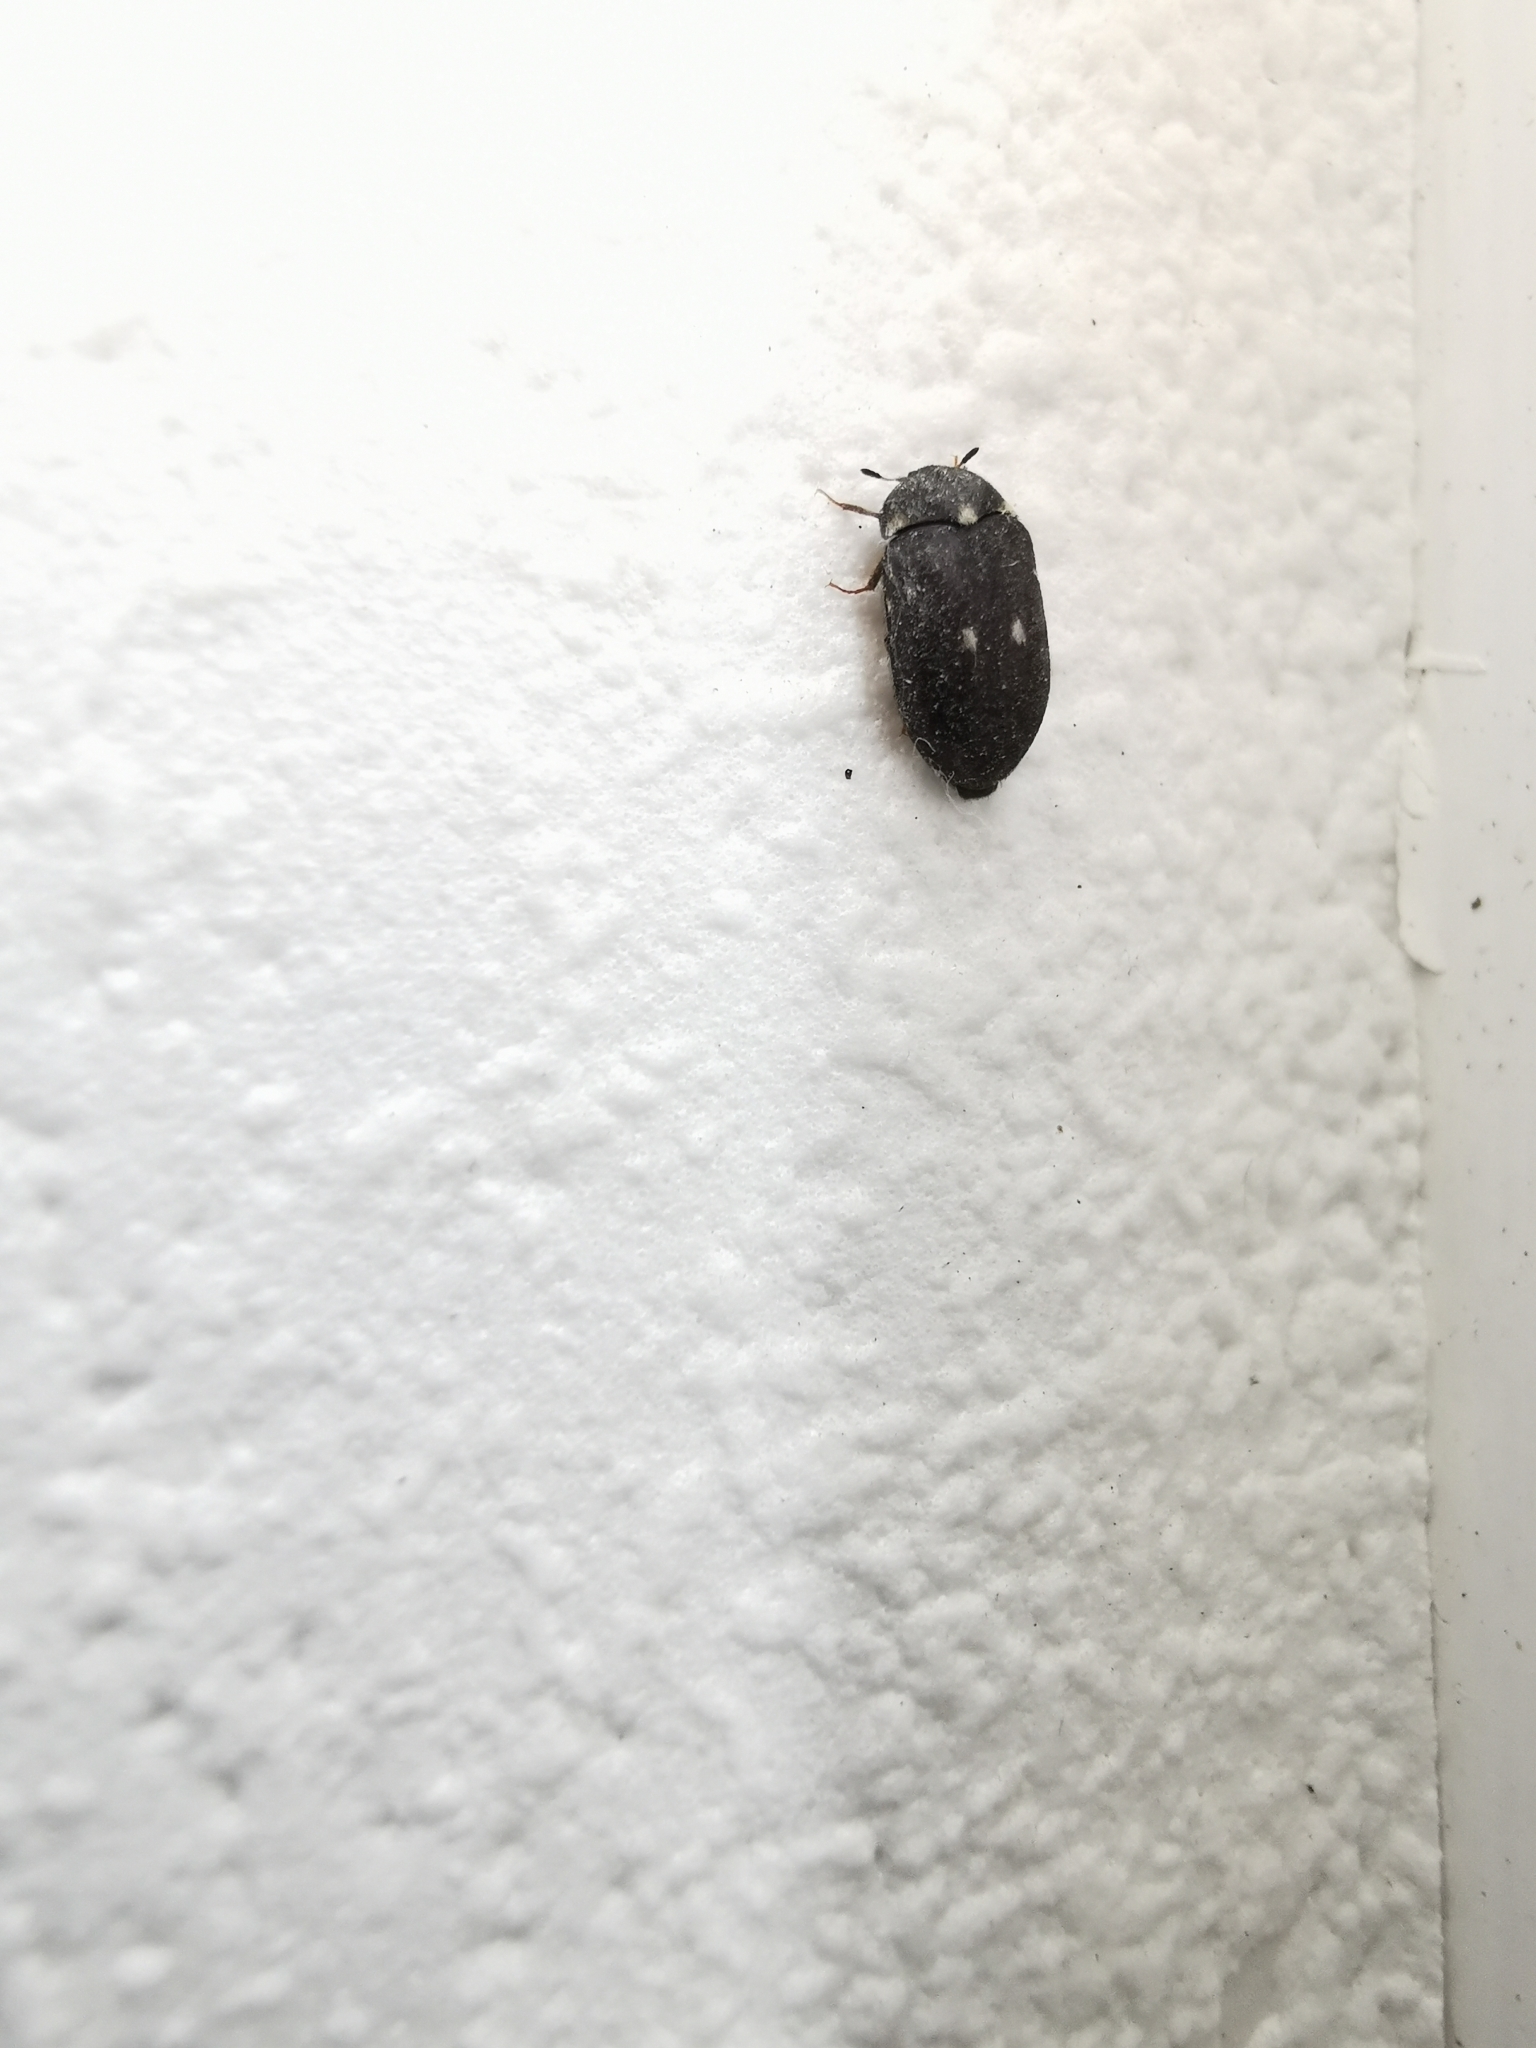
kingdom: Animalia
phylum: Arthropoda
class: Insecta
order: Coleoptera
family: Dermestidae
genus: Attagenus
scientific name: Attagenus pellio
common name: Two-spotted carpet beetle
